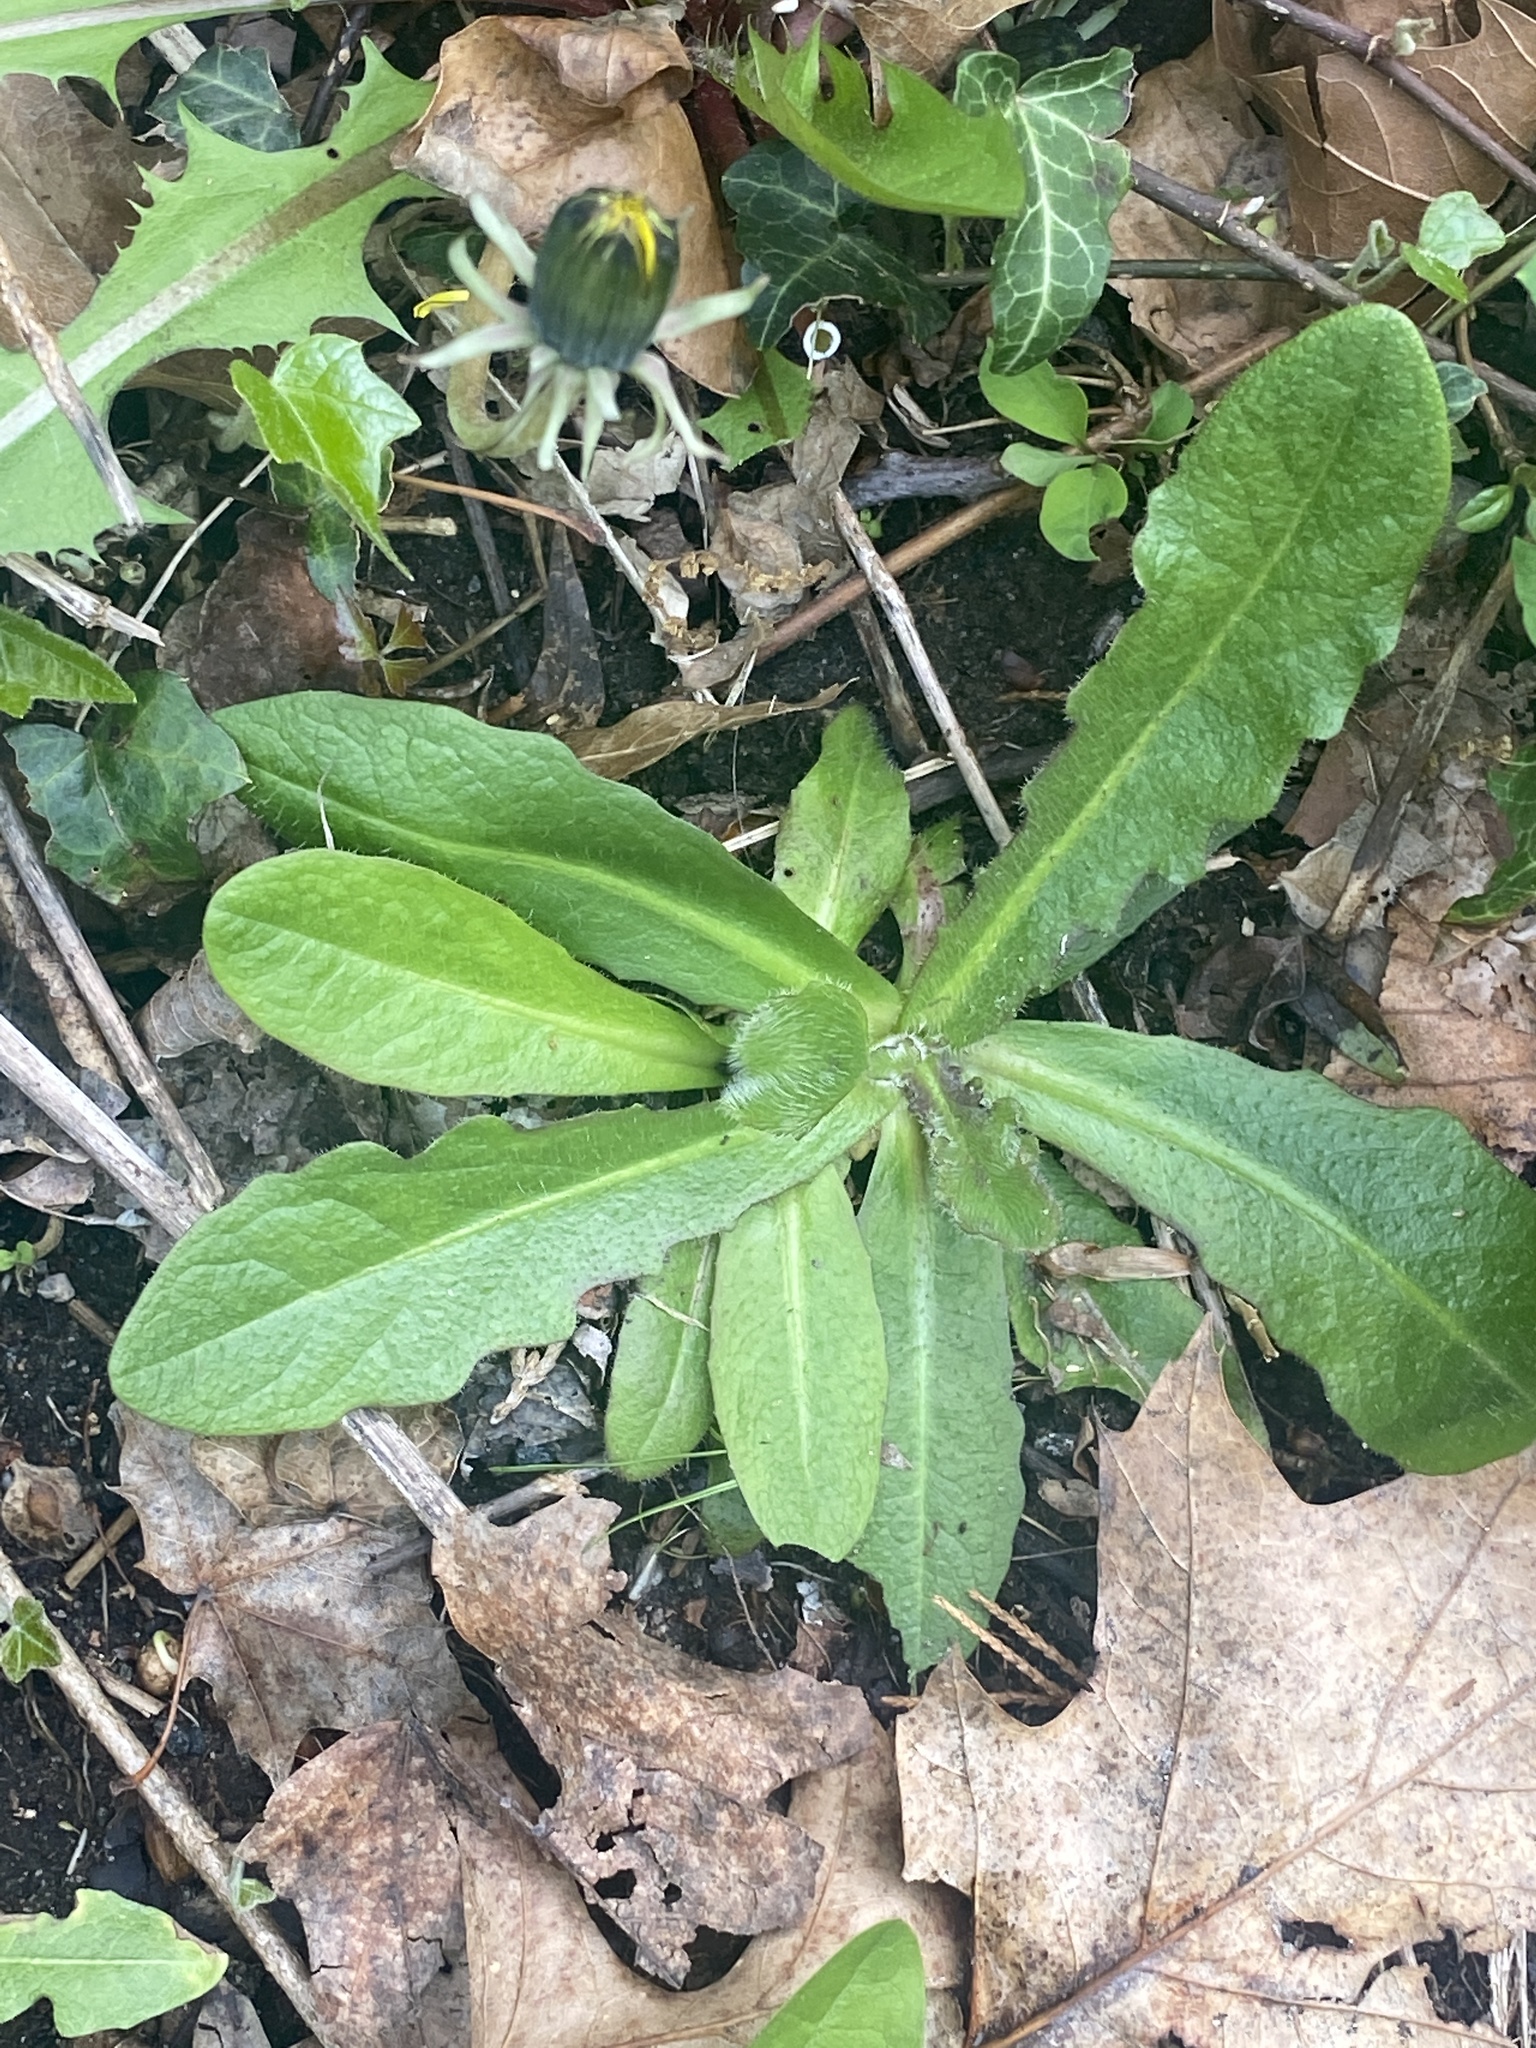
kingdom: Plantae
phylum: Tracheophyta
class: Magnoliopsida
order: Asterales
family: Asteraceae
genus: Hypochaeris
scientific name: Hypochaeris radicata
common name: Flatweed
